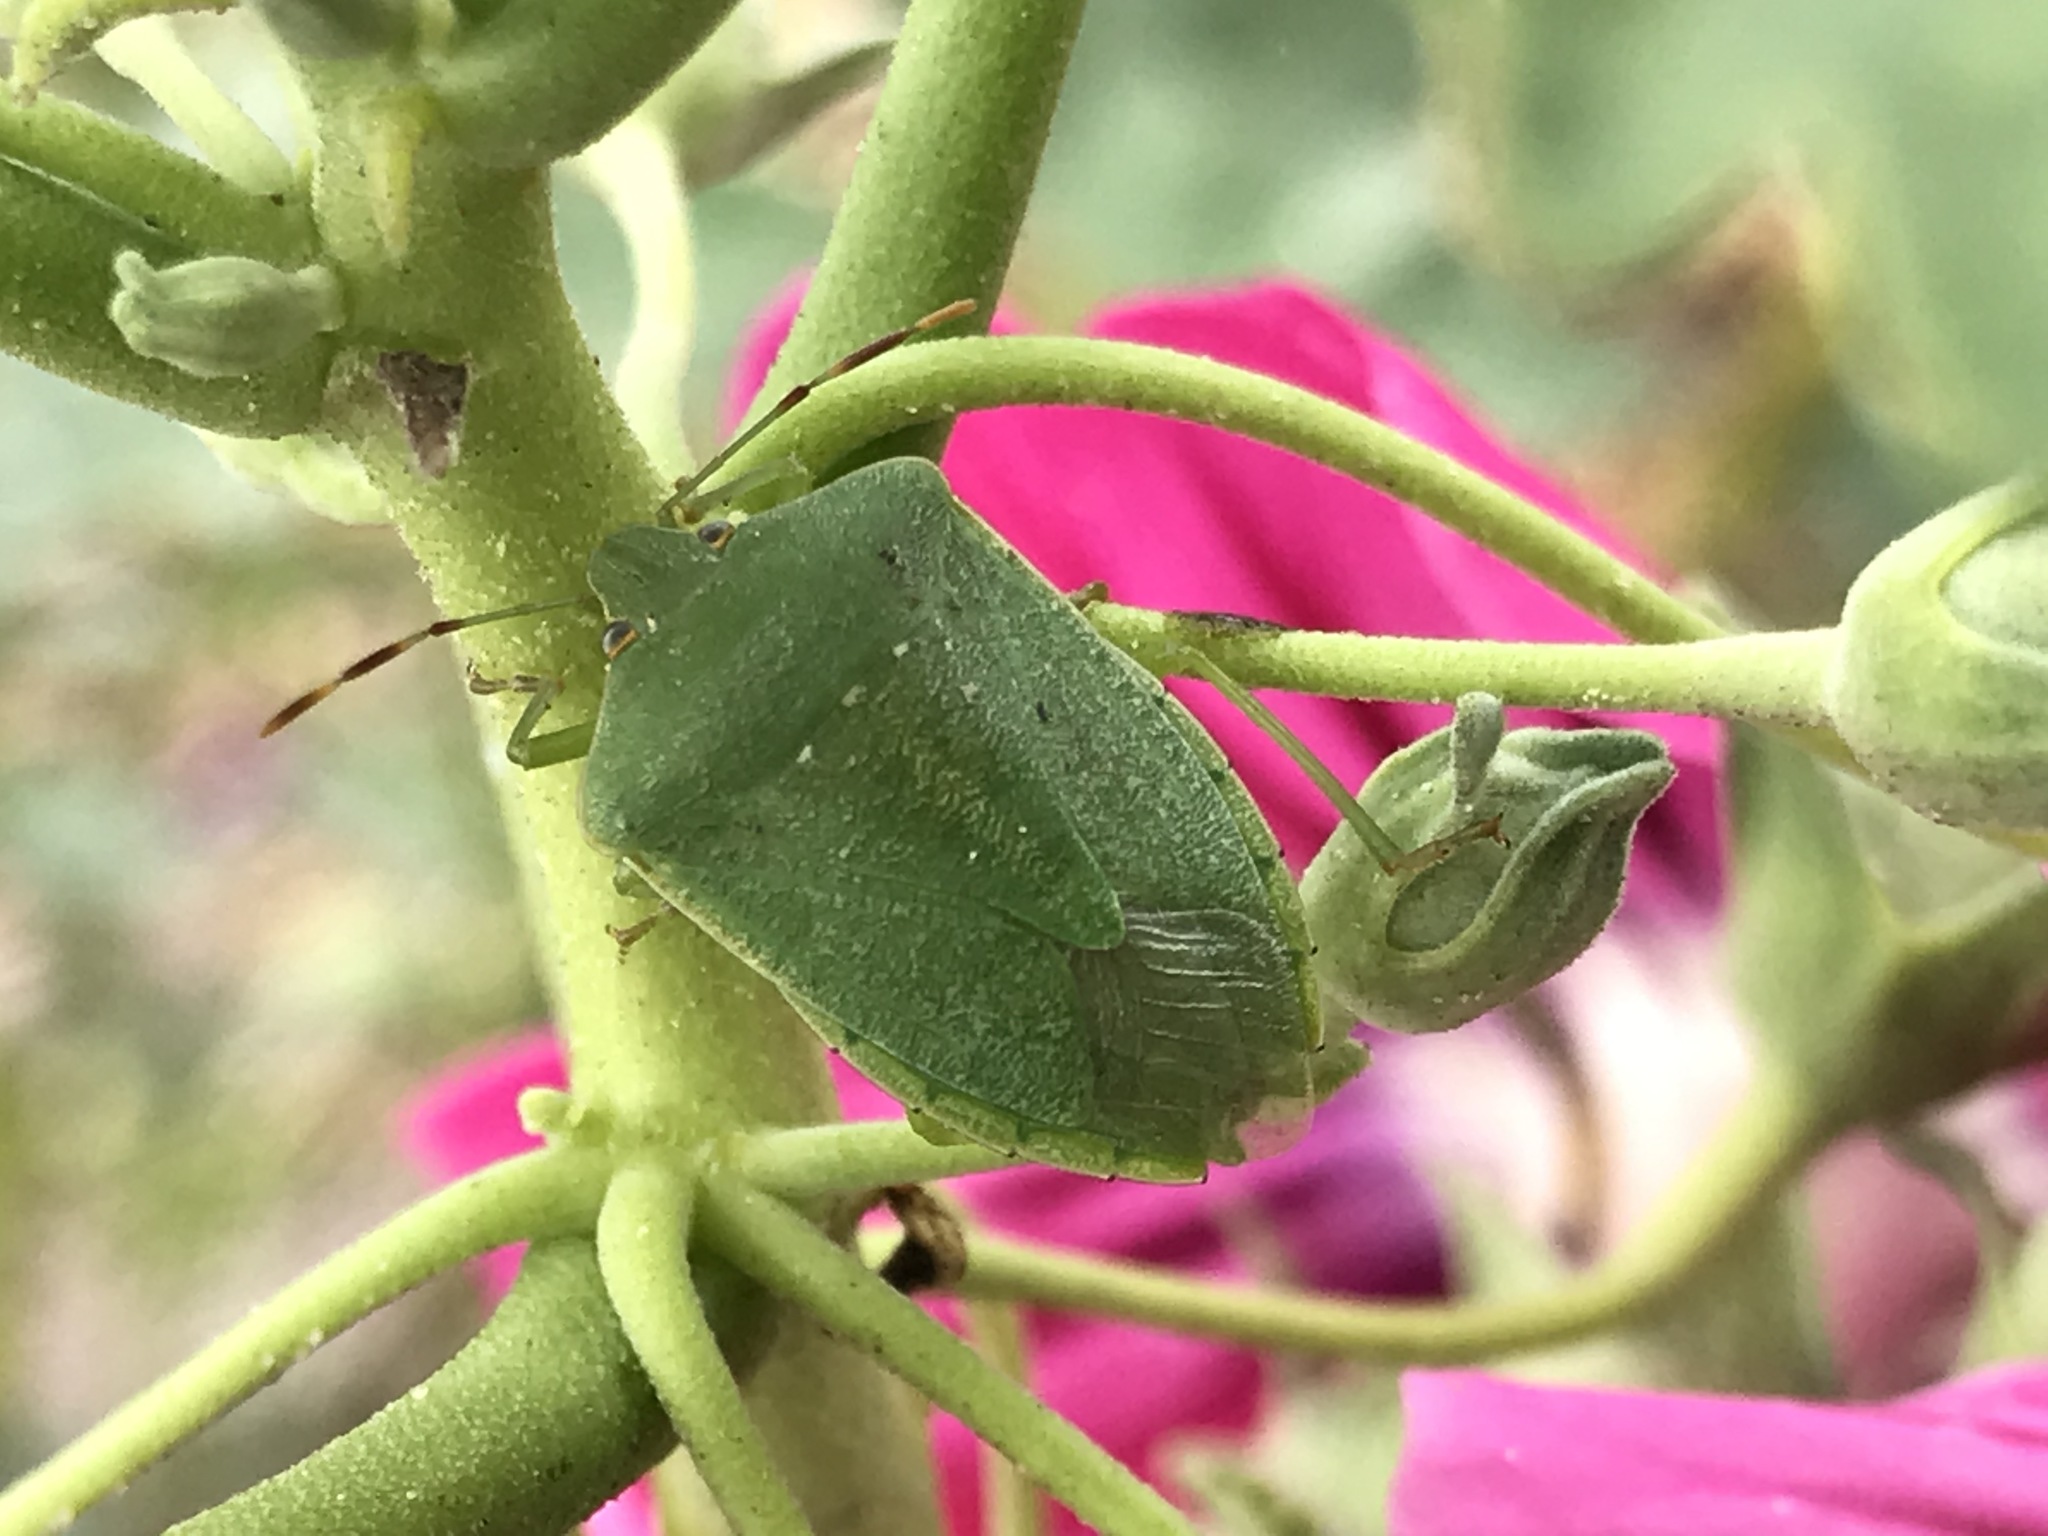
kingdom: Animalia
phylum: Arthropoda
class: Insecta
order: Hemiptera
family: Pentatomidae
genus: Nezara
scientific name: Nezara viridula
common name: Southern green stink bug
